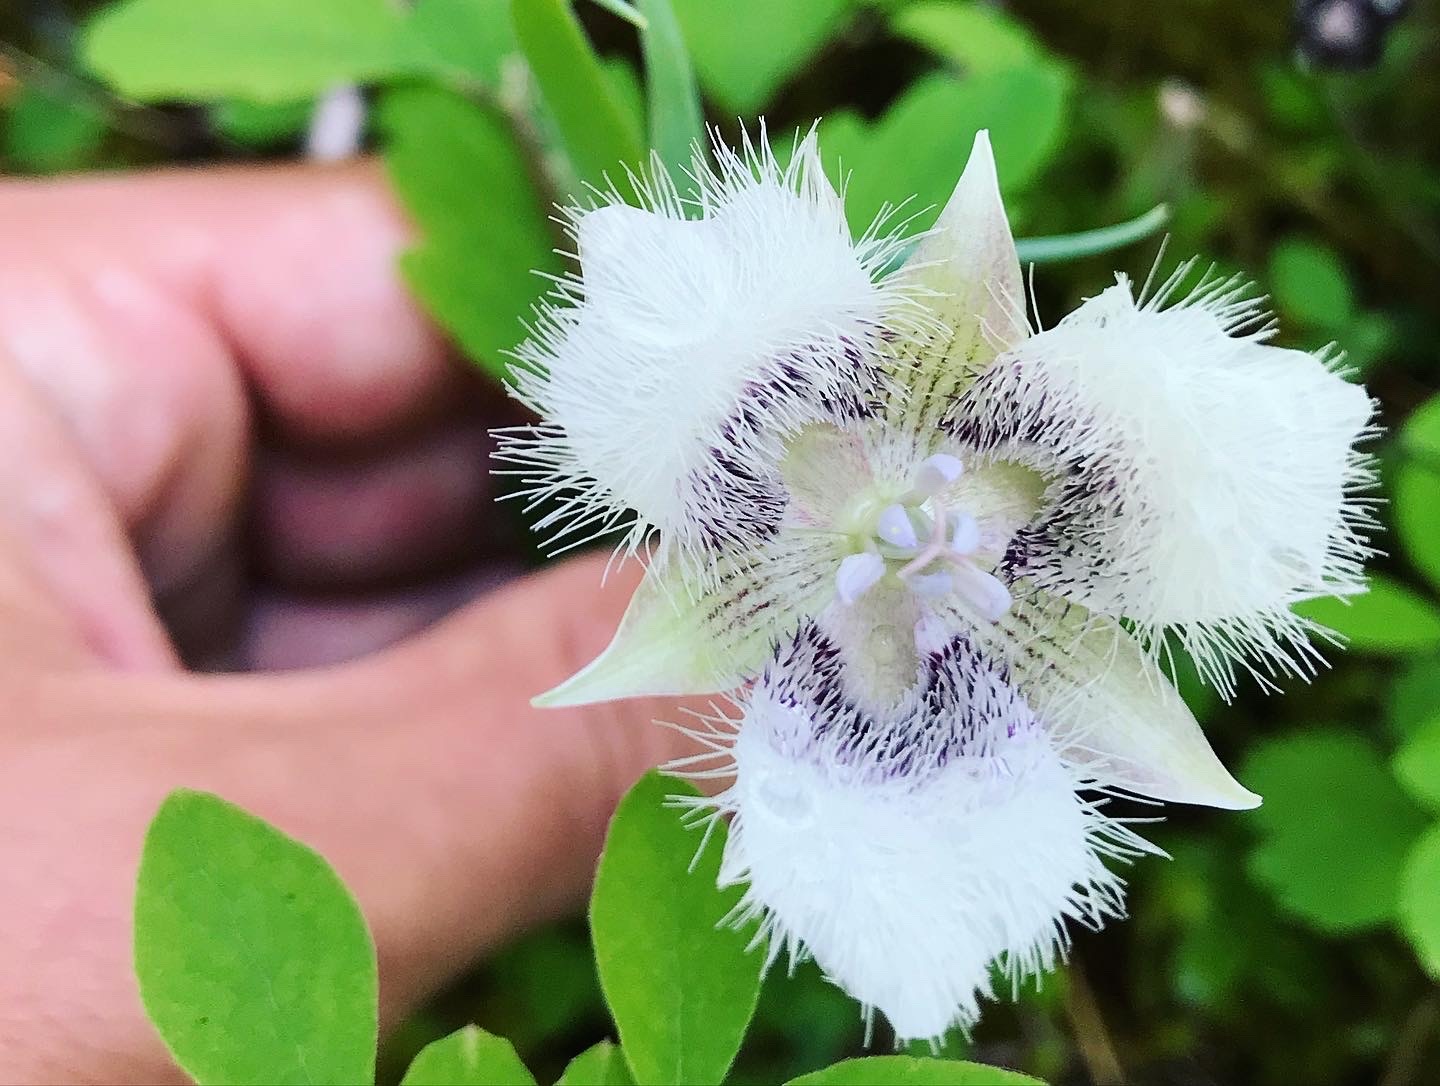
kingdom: Plantae
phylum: Tracheophyta
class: Liliopsida
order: Liliales
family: Liliaceae
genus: Calochortus
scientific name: Calochortus tolmiei
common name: Pussy-ears
